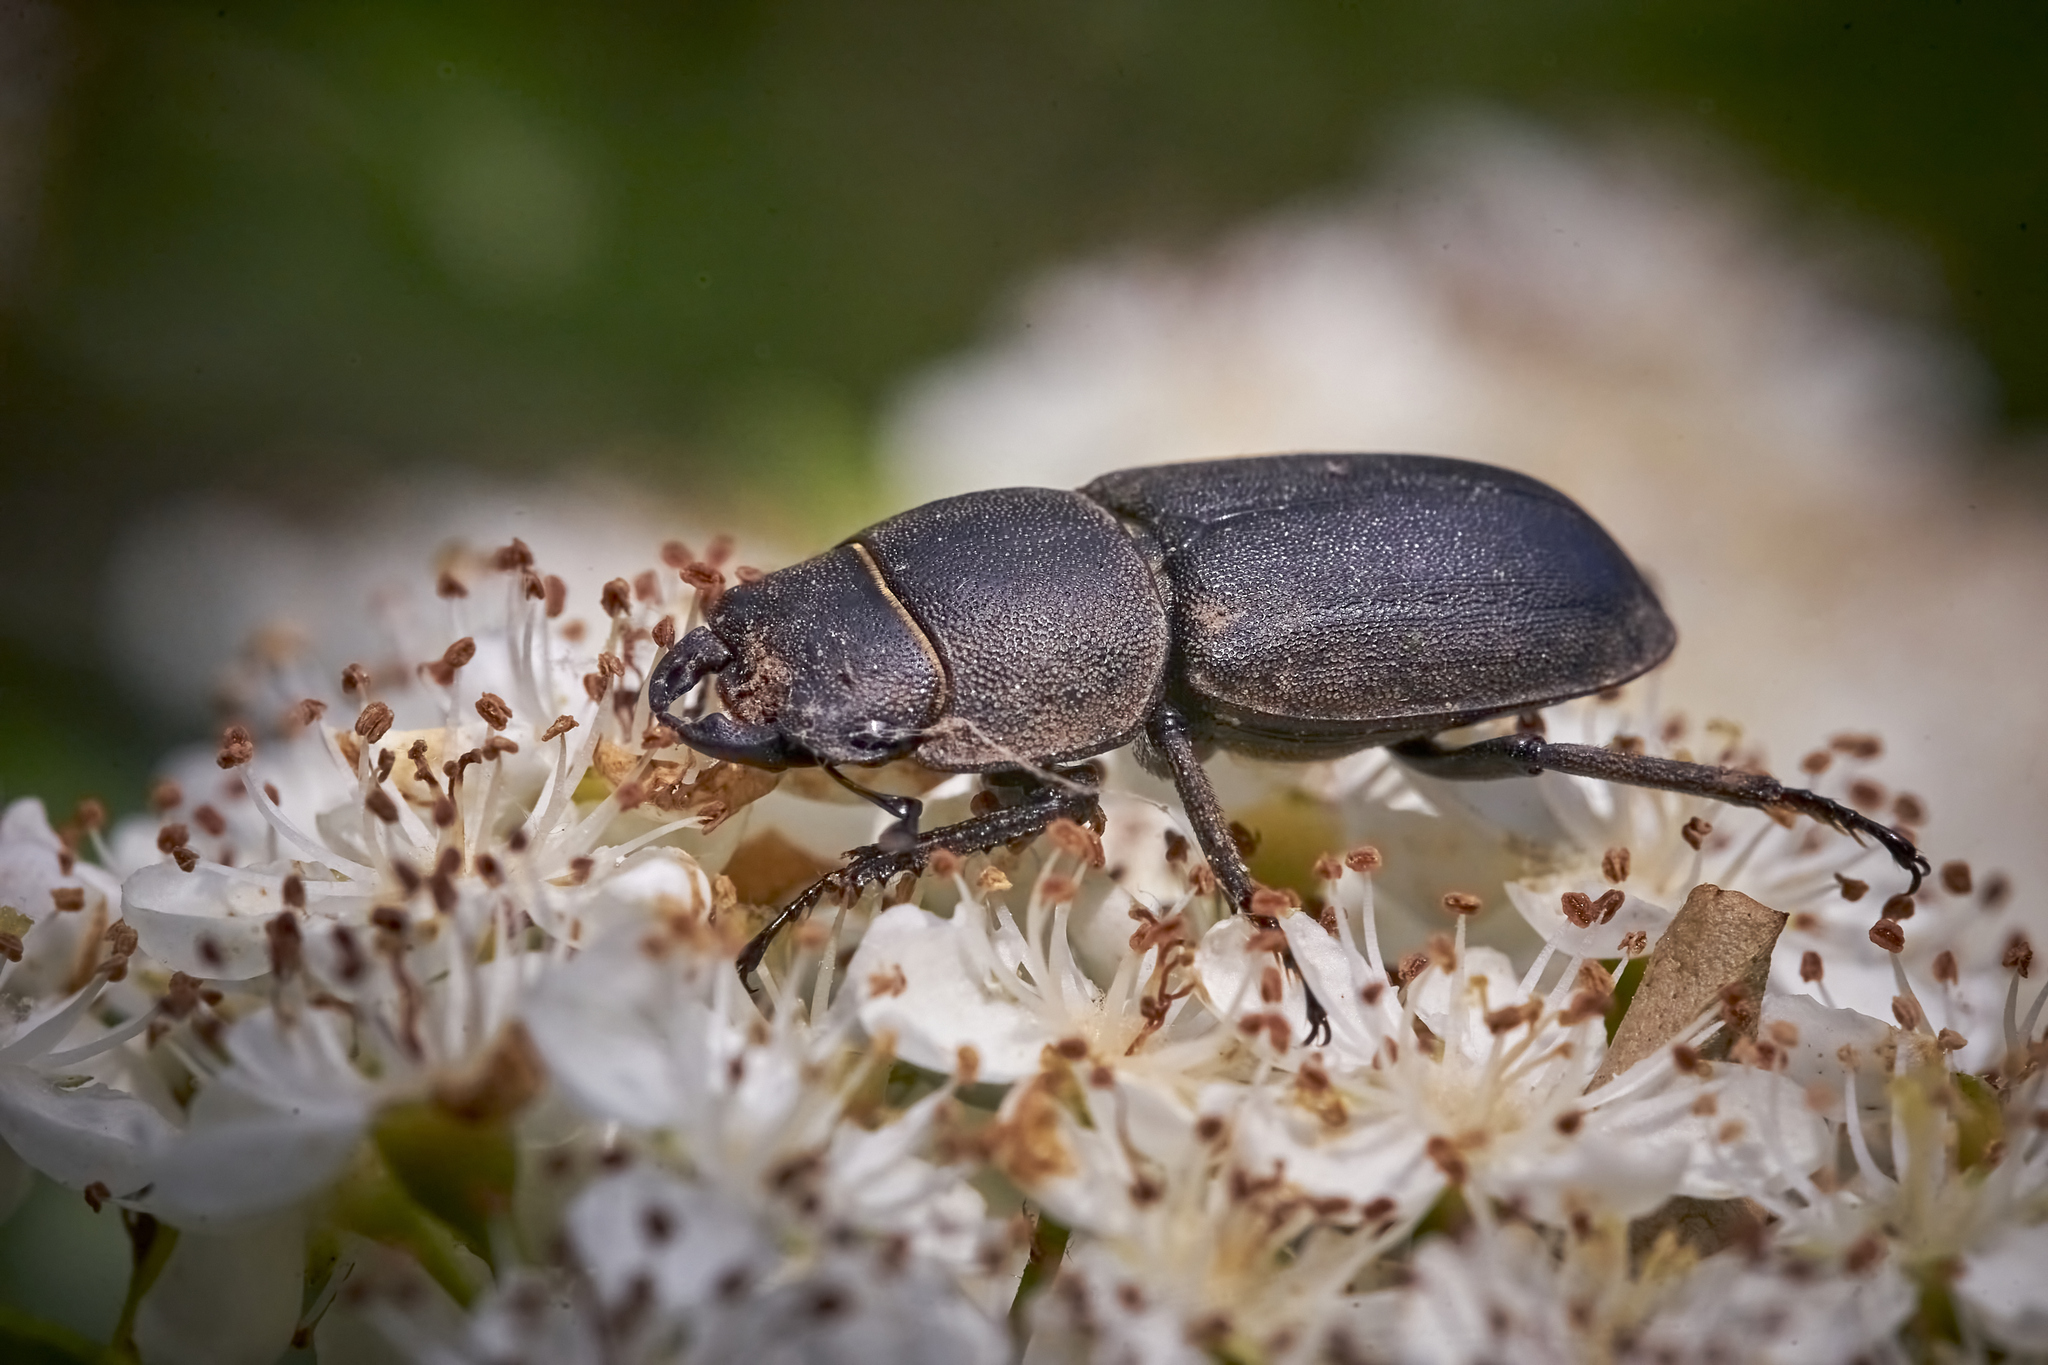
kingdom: Animalia
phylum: Arthropoda
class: Insecta
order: Coleoptera
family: Lucanidae
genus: Dorcus
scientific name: Dorcus parallelipipedus
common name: Lesser stag beetle
